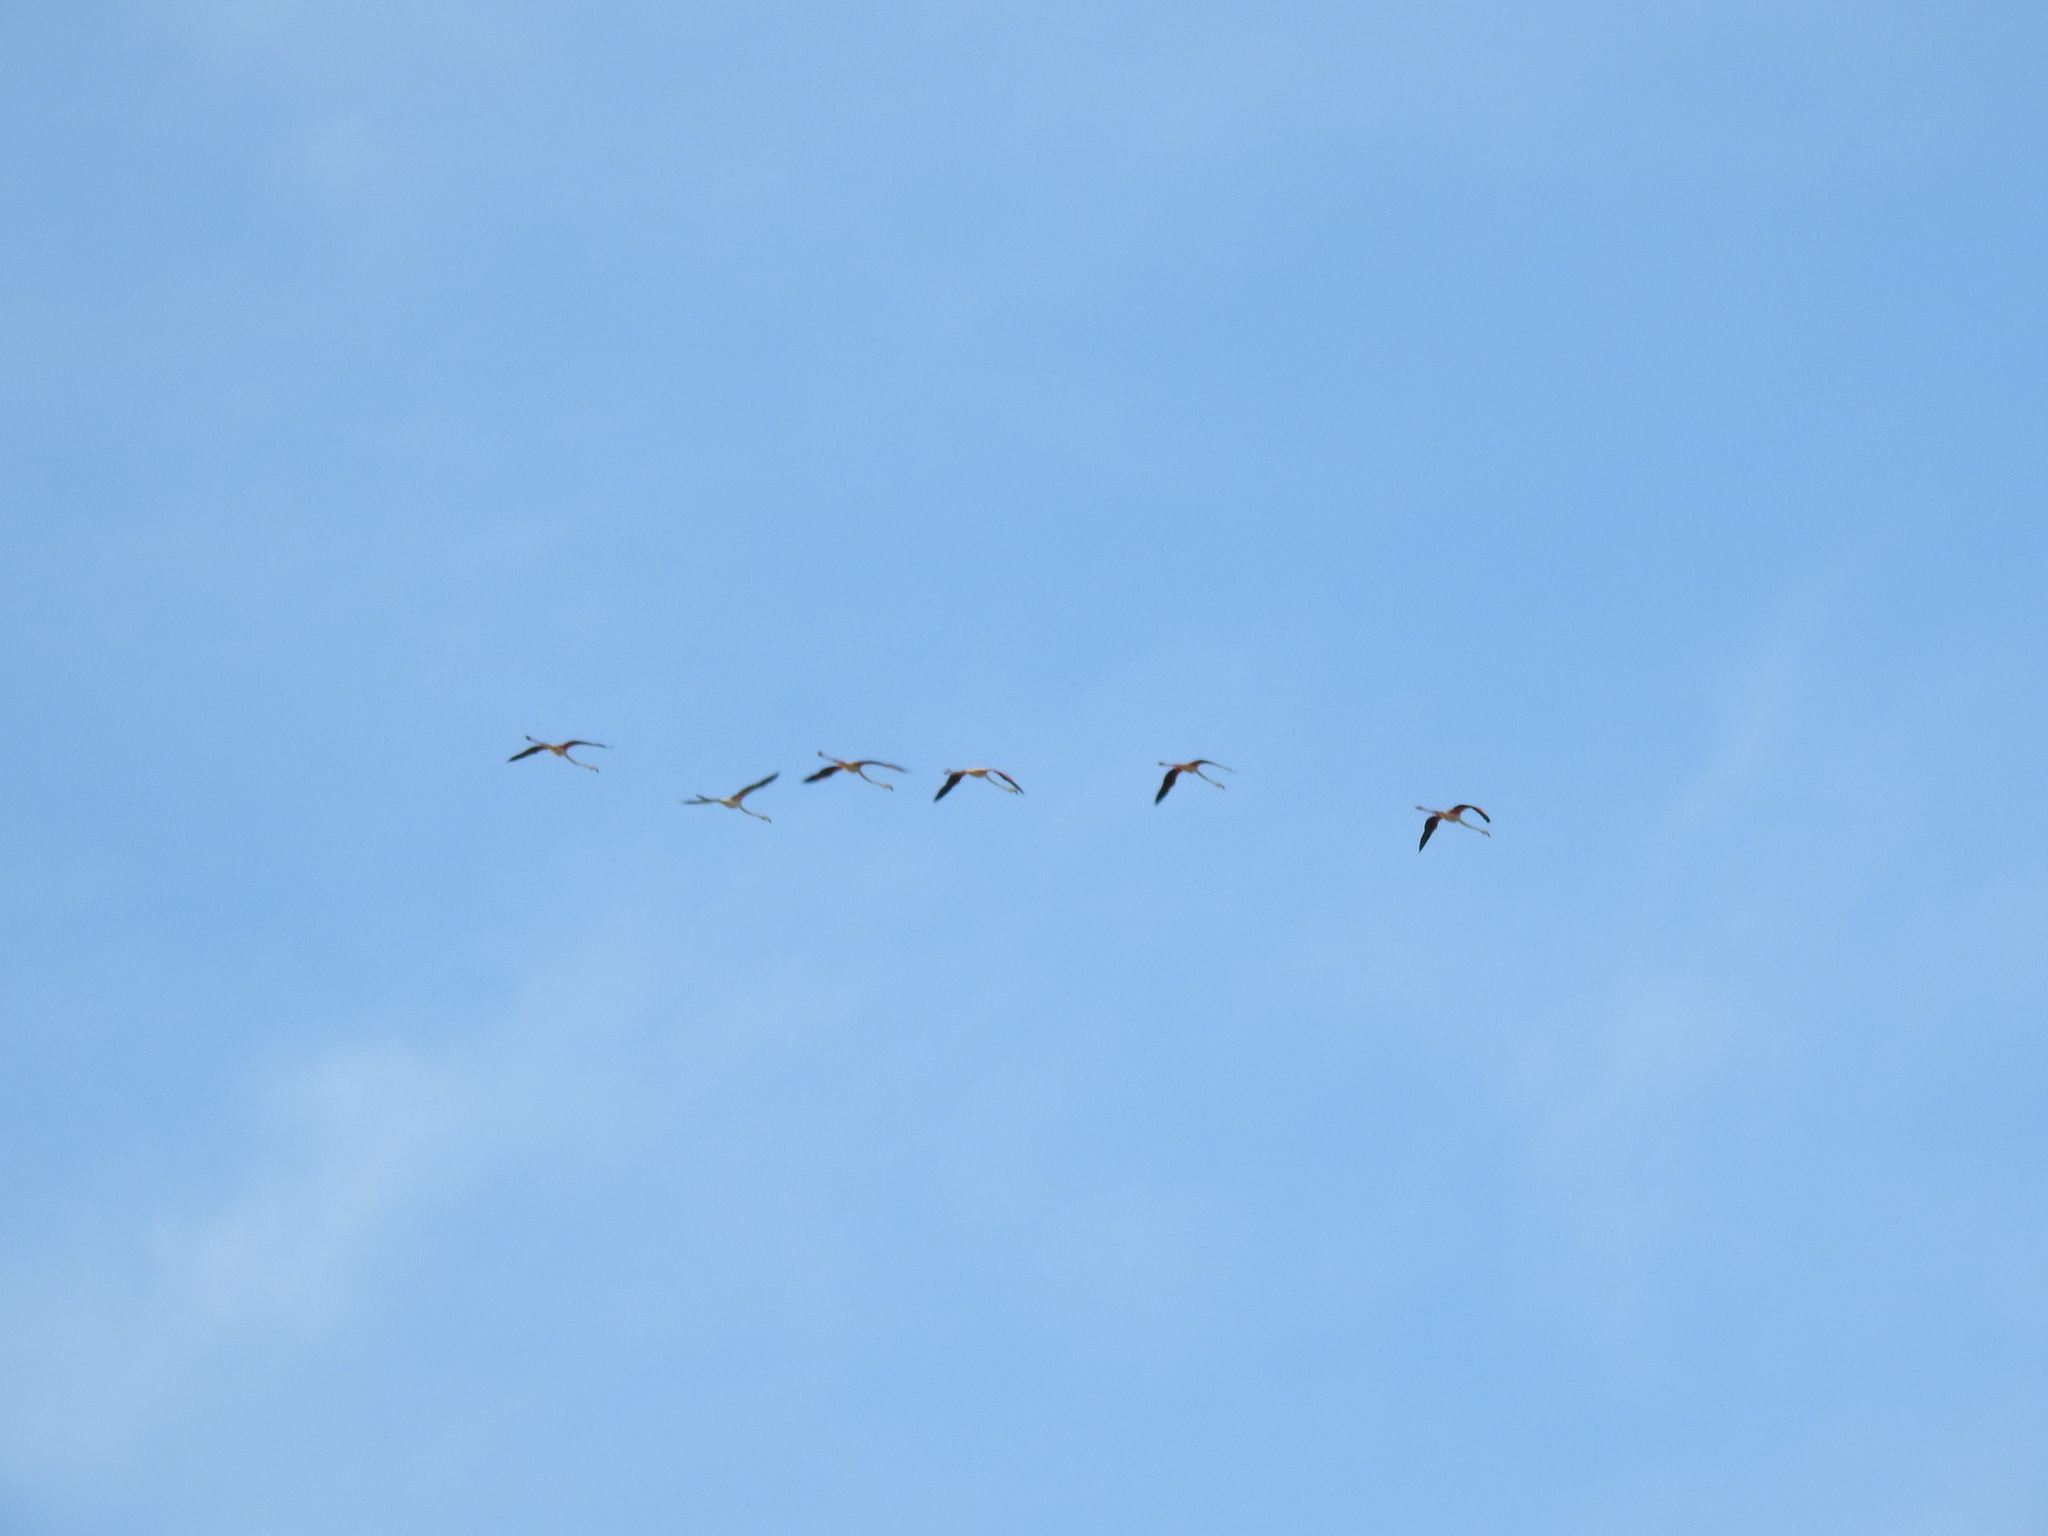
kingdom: Animalia
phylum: Chordata
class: Aves
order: Phoenicopteriformes
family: Phoenicopteridae
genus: Phoenicopterus
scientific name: Phoenicopterus roseus
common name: Greater flamingo
